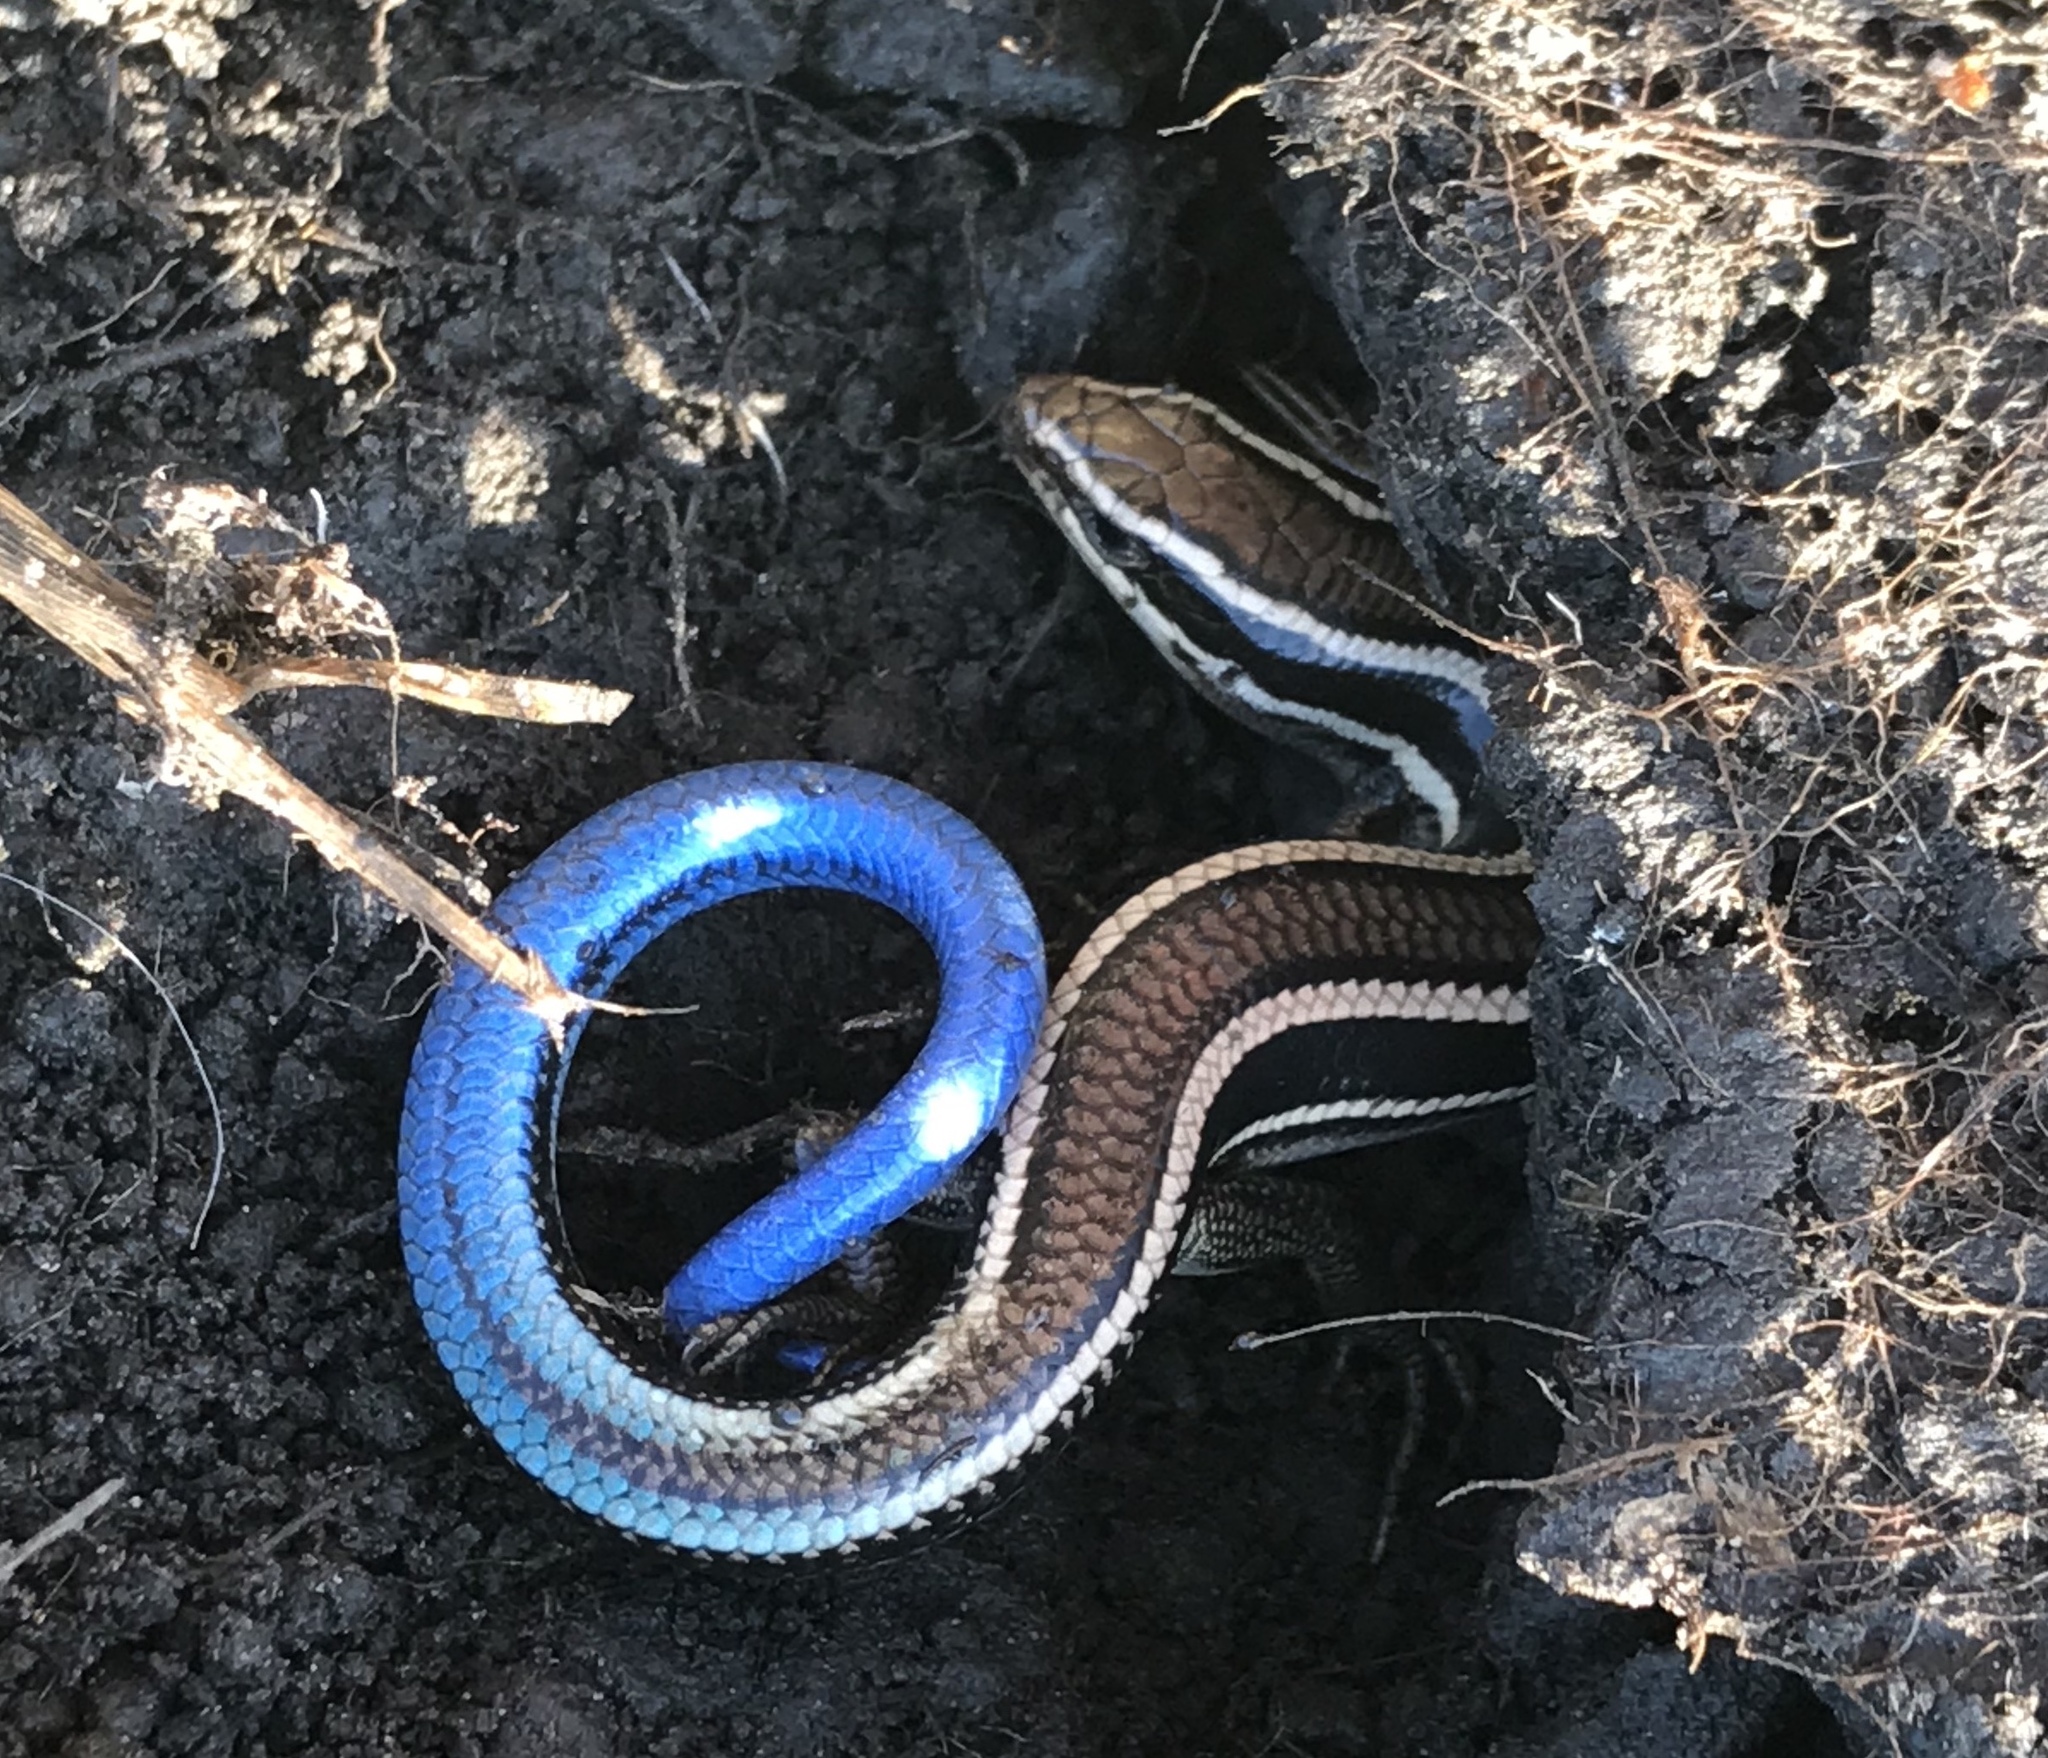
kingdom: Animalia
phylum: Chordata
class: Squamata
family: Scincidae
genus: Plestiodon
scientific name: Plestiodon skiltonianus
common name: Coronado island skink [interparietalis]
